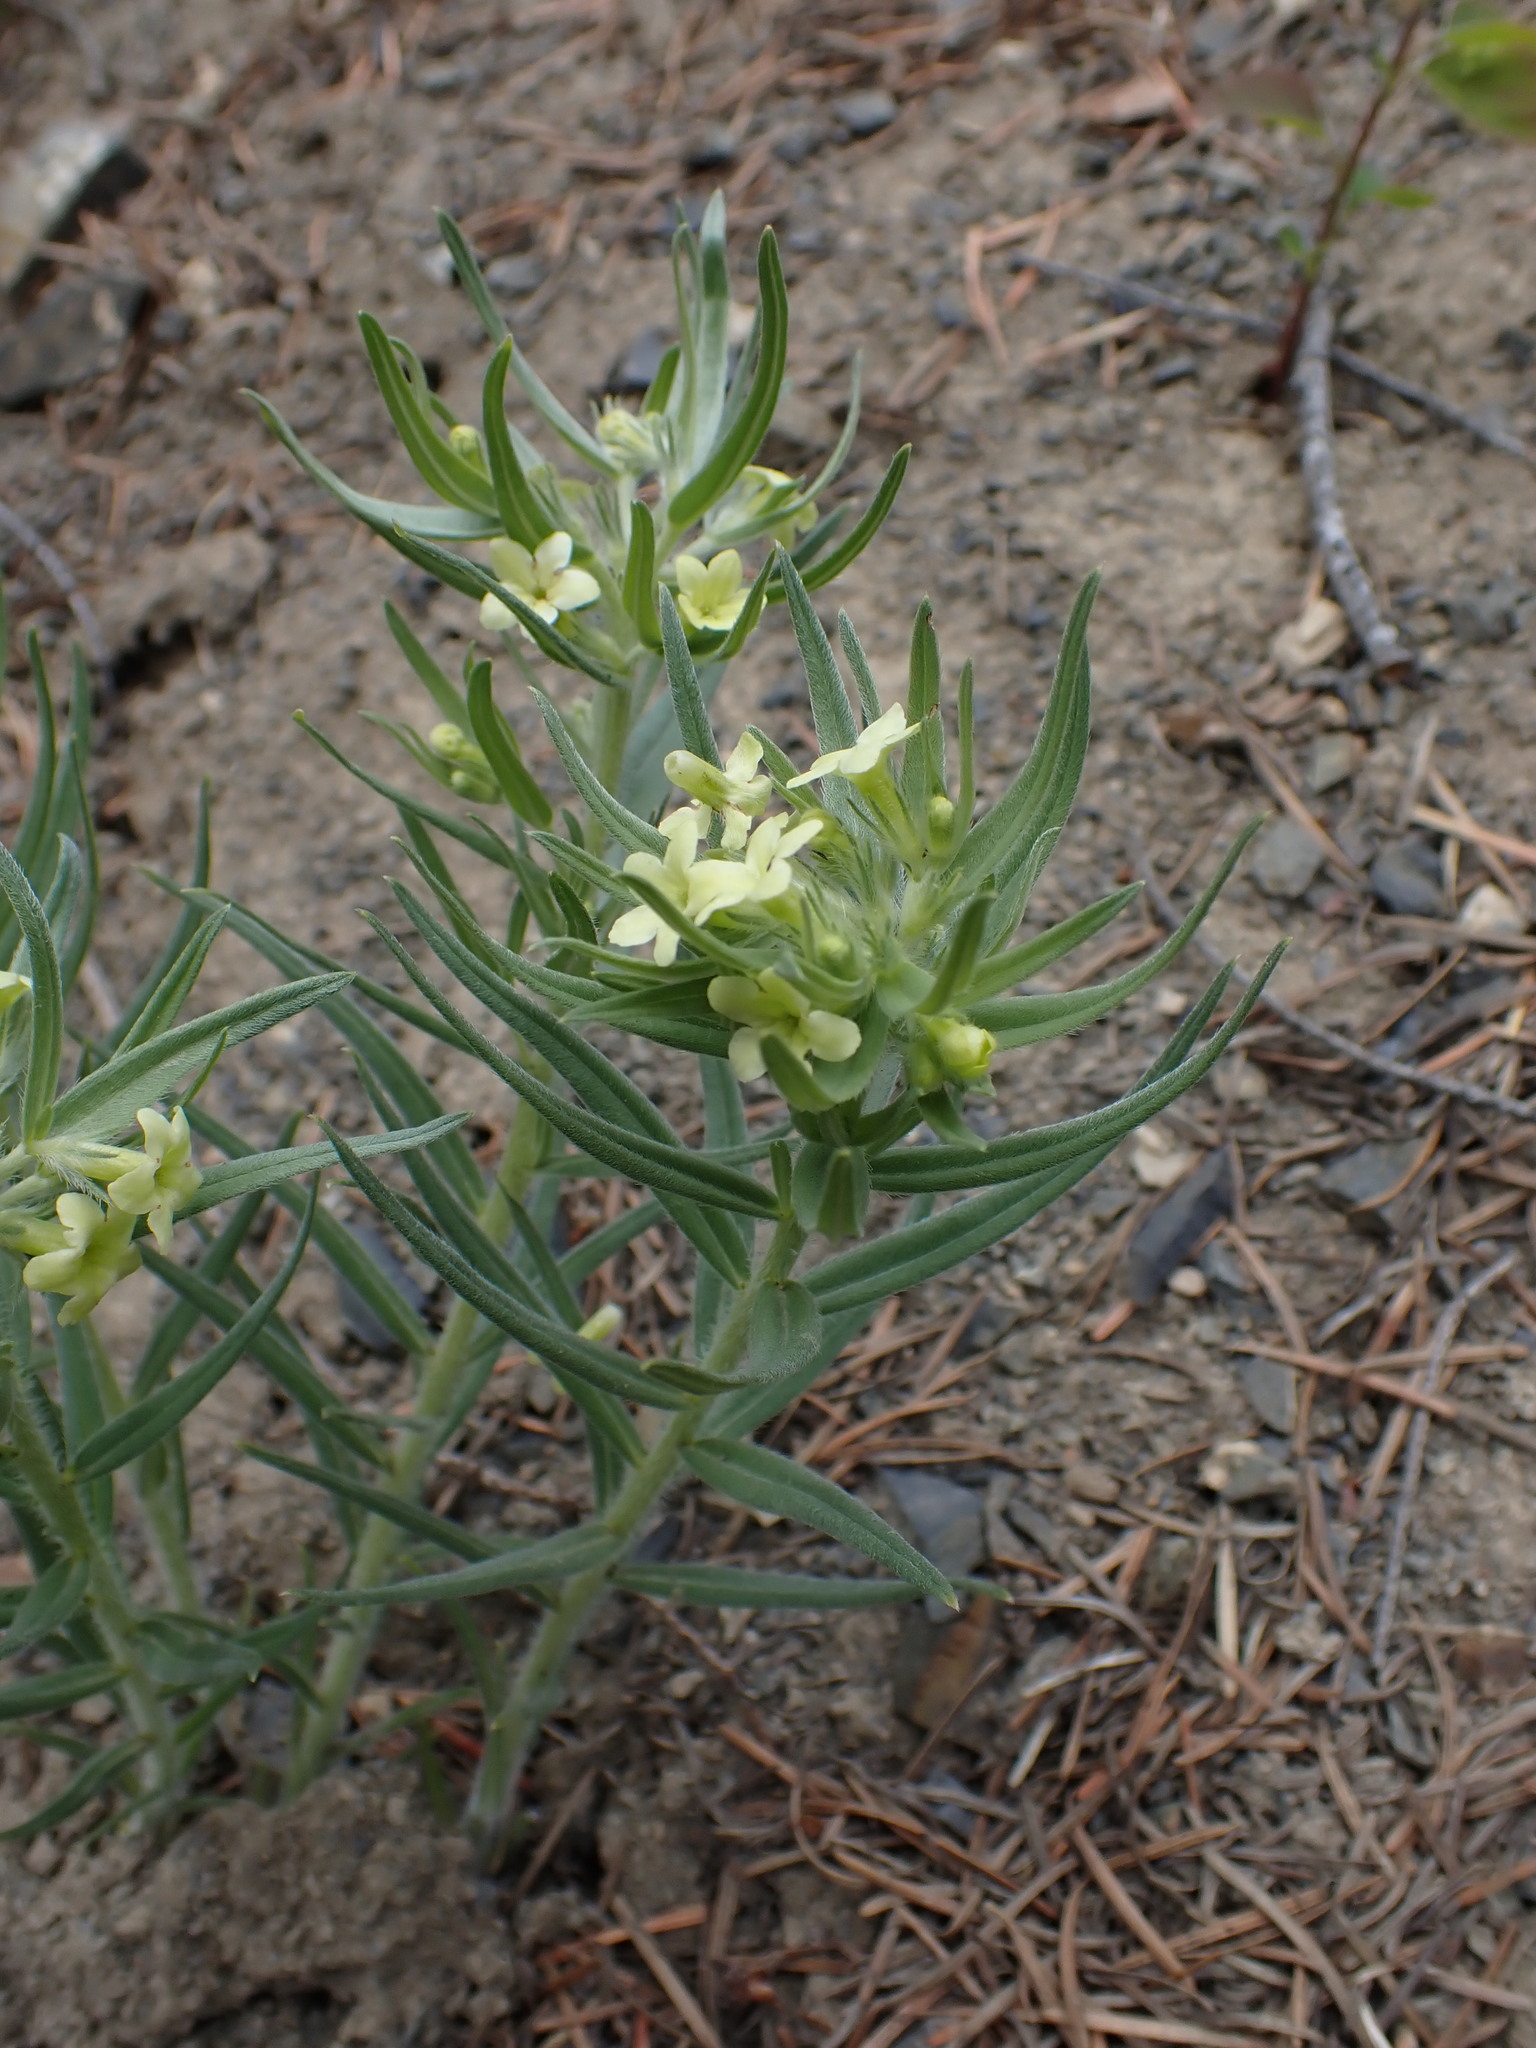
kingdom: Plantae
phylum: Tracheophyta
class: Magnoliopsida
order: Boraginales
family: Boraginaceae
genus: Lithospermum
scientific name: Lithospermum ruderale
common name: Western gromwell
